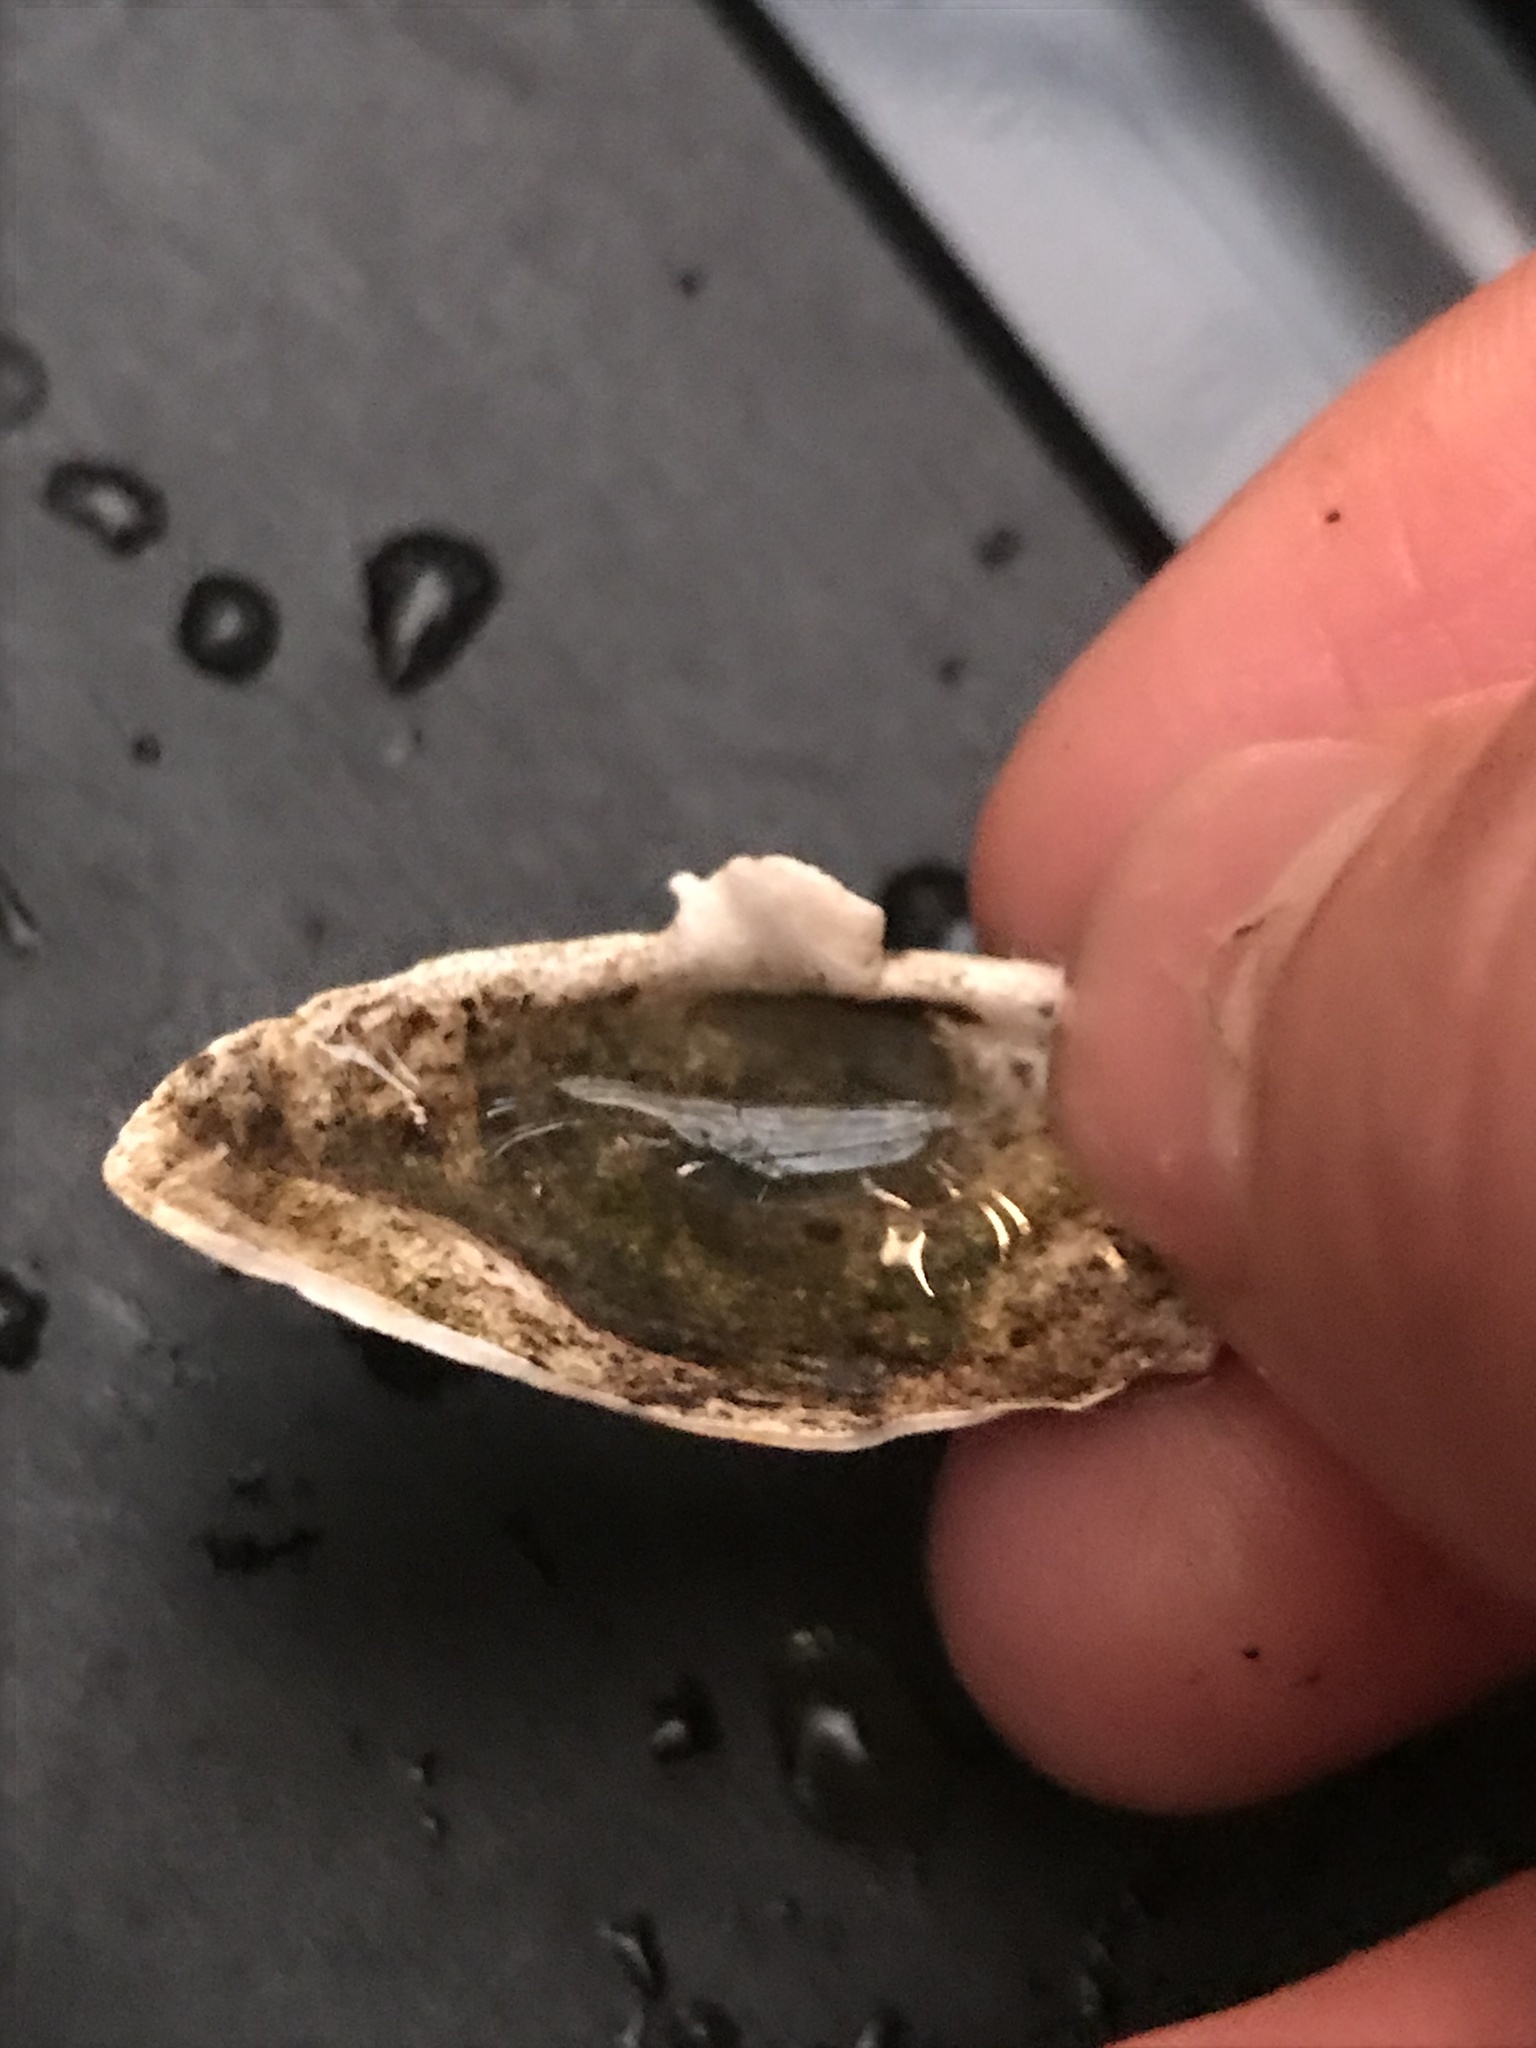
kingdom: Animalia
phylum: Mollusca
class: Bivalvia
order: Myida
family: Myidae
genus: Mya
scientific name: Mya arenaria
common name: Soft-shelled clam
